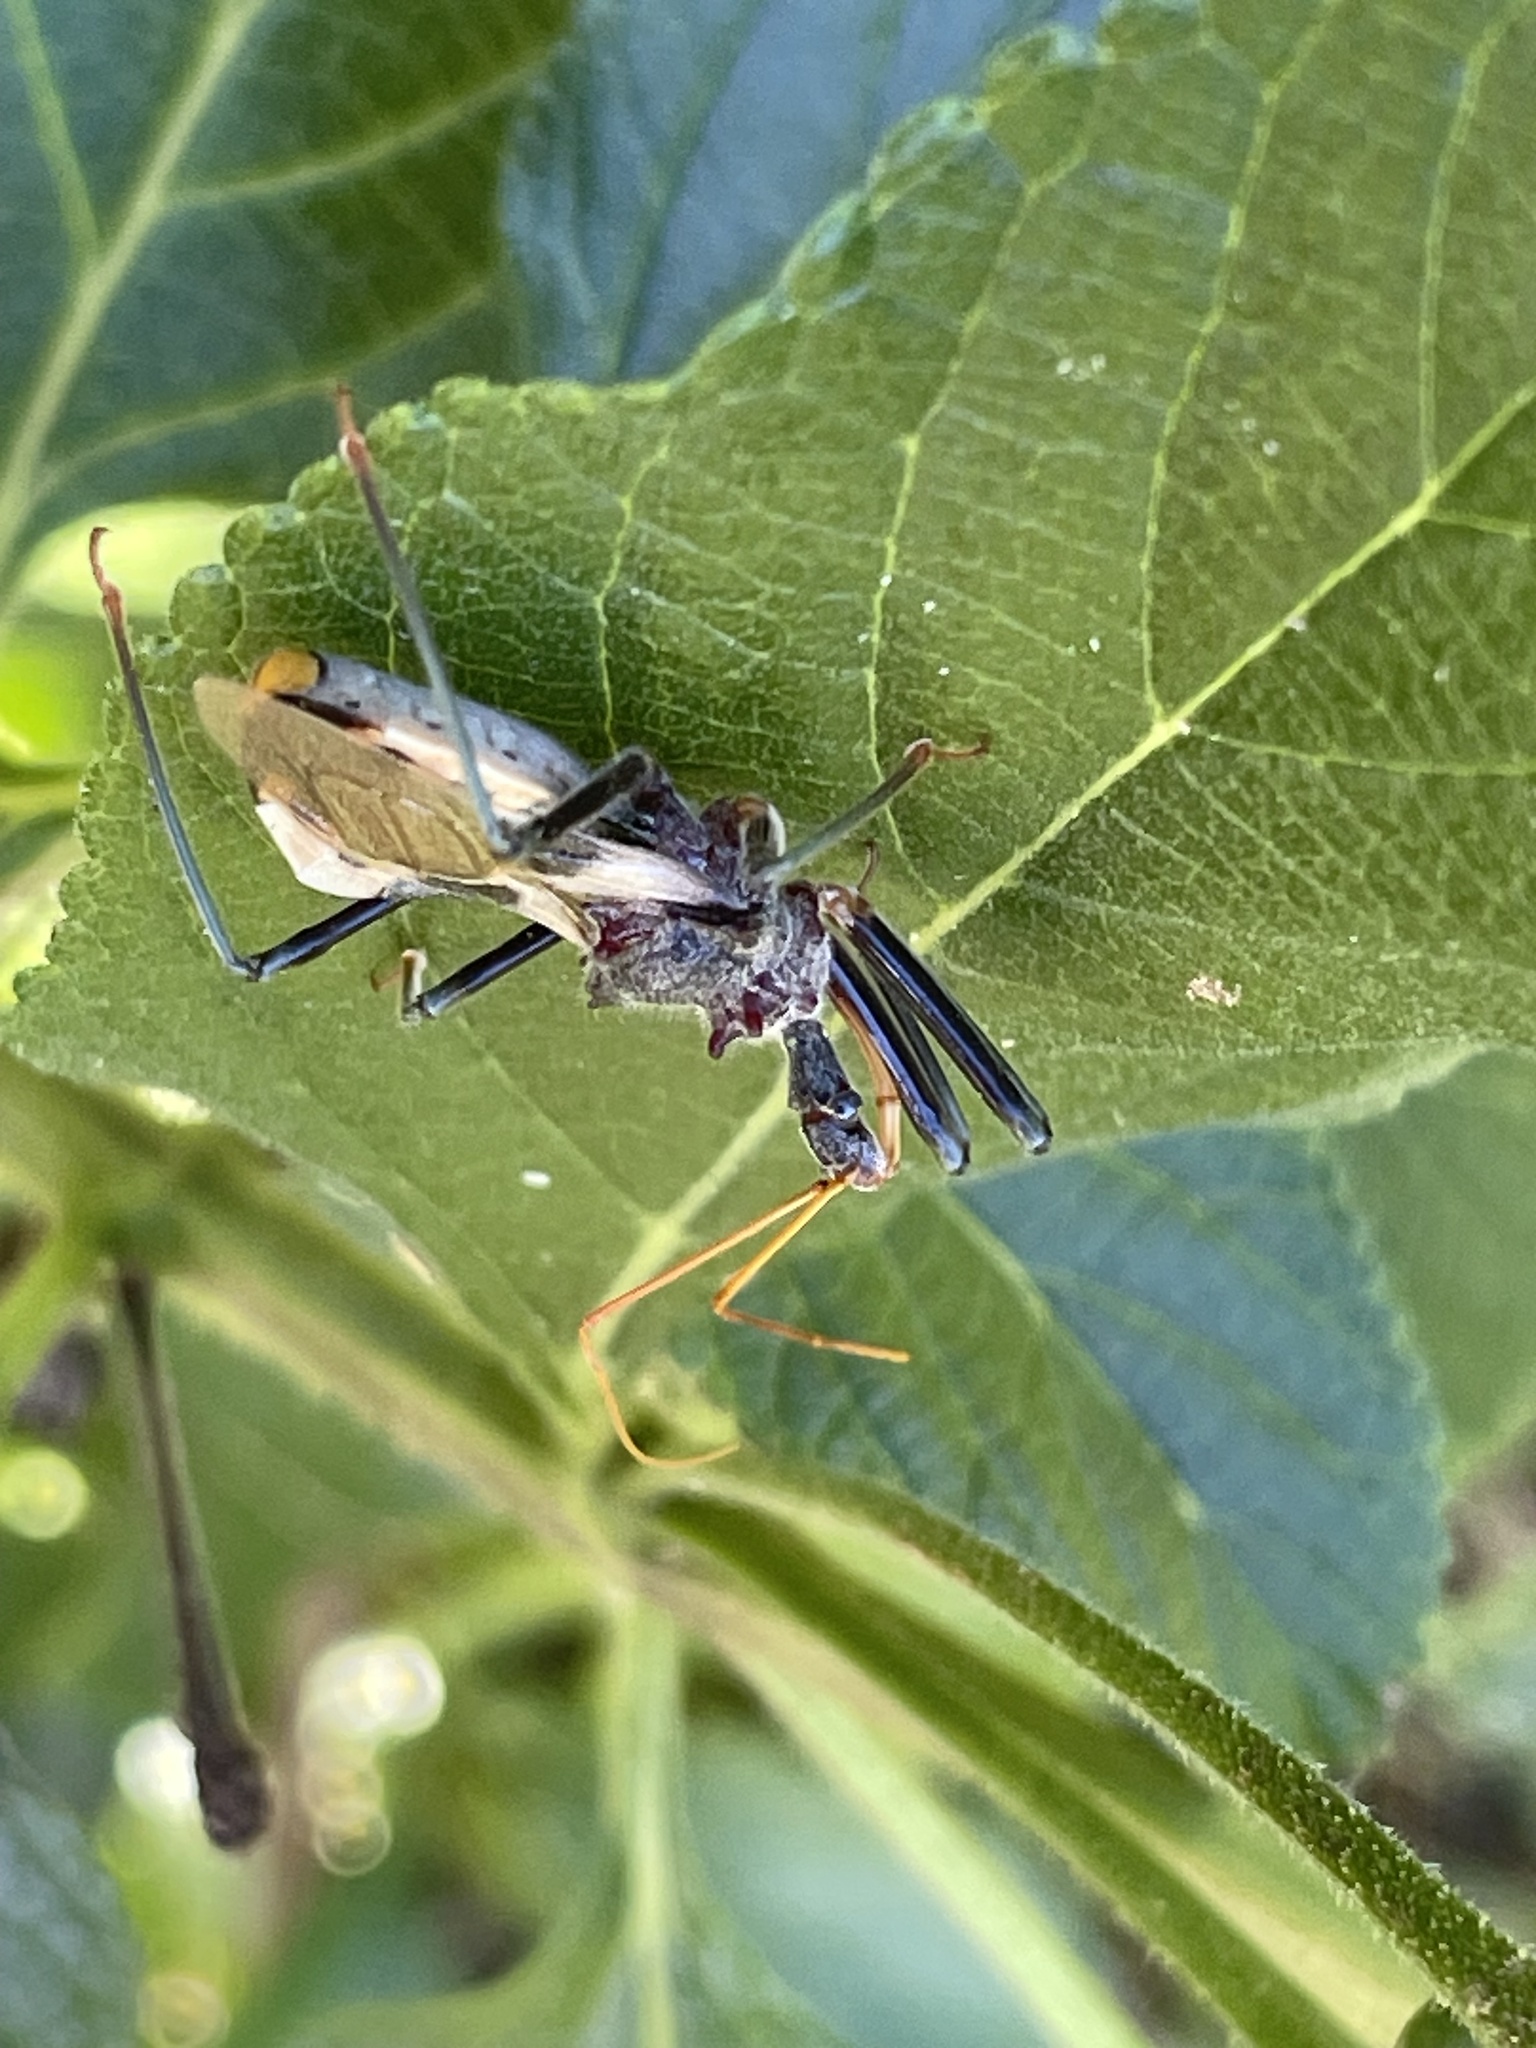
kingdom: Animalia
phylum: Arthropoda
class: Insecta
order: Hemiptera
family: Reduviidae
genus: Pristhesancus
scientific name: Pristhesancus plagipennis
